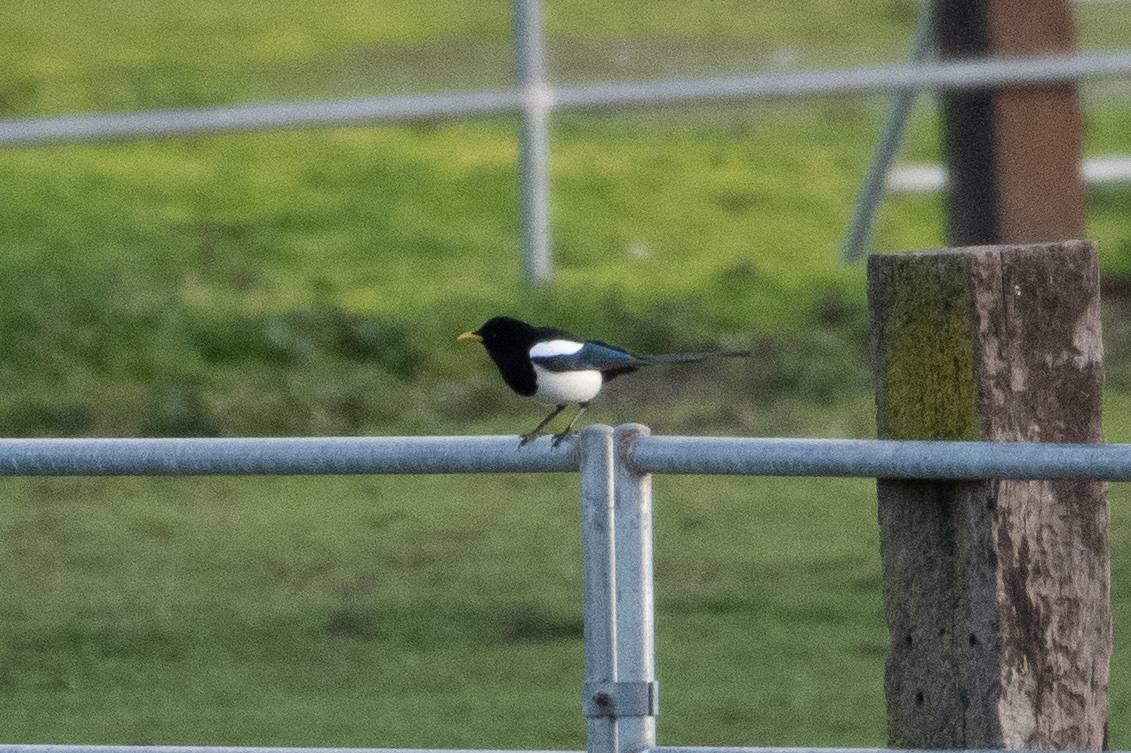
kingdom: Animalia
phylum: Chordata
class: Aves
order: Passeriformes
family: Corvidae
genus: Pica
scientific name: Pica nuttalli
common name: Yellow-billed magpie
